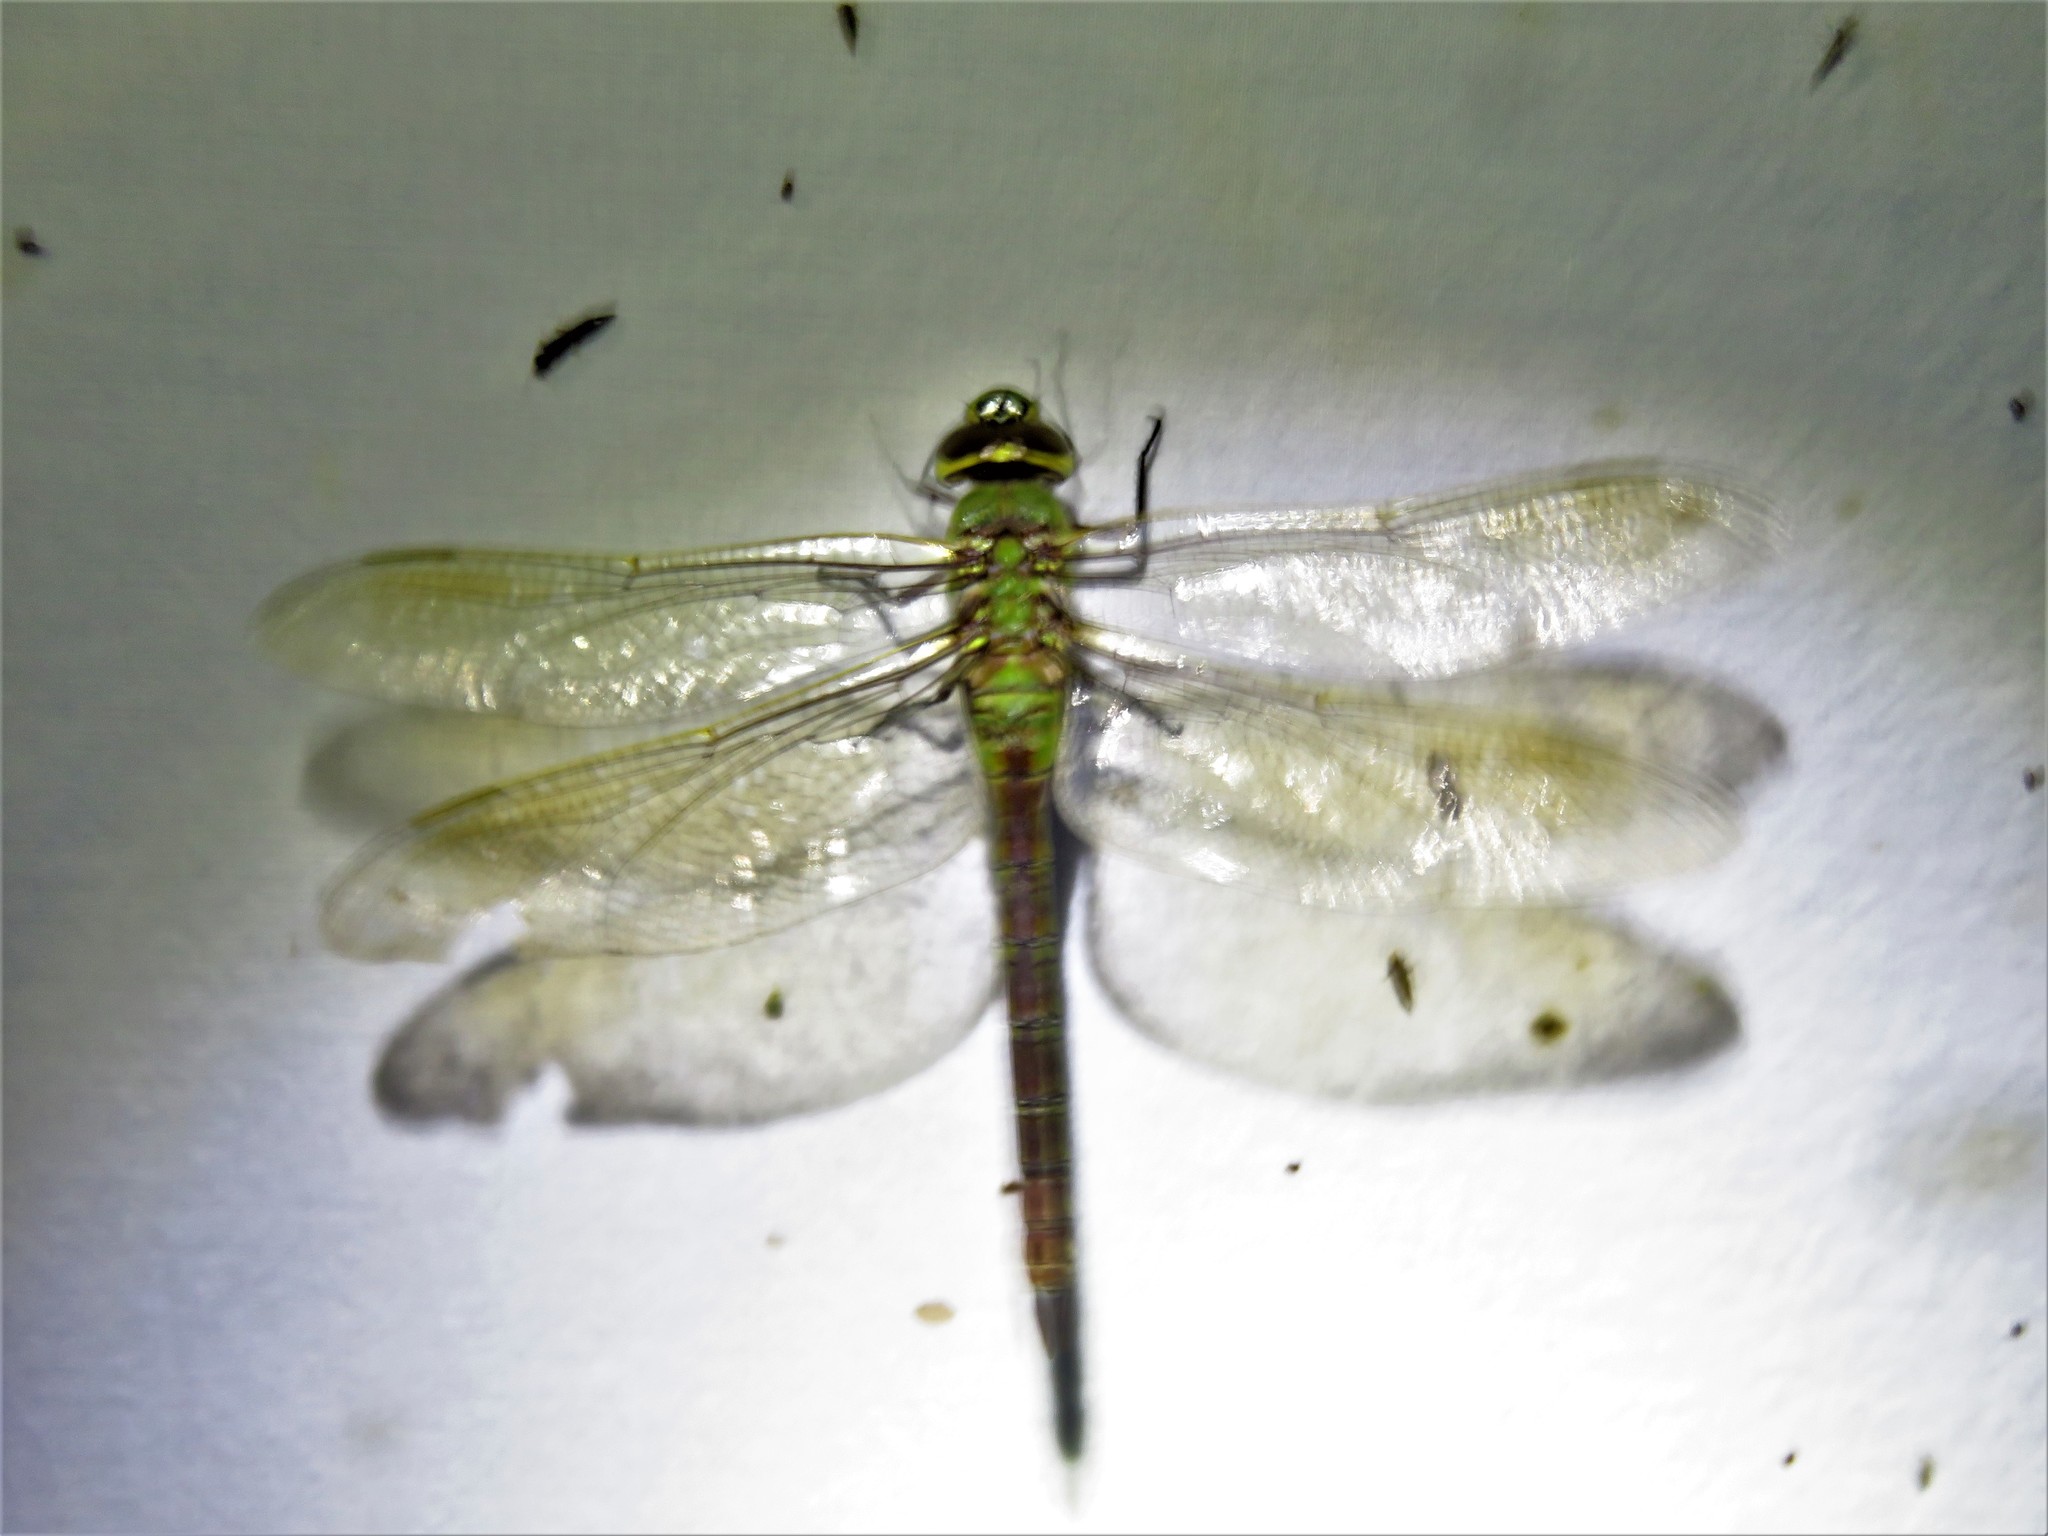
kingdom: Animalia
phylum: Arthropoda
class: Insecta
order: Odonata
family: Aeshnidae
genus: Anax
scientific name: Anax junius
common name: Common green darner
